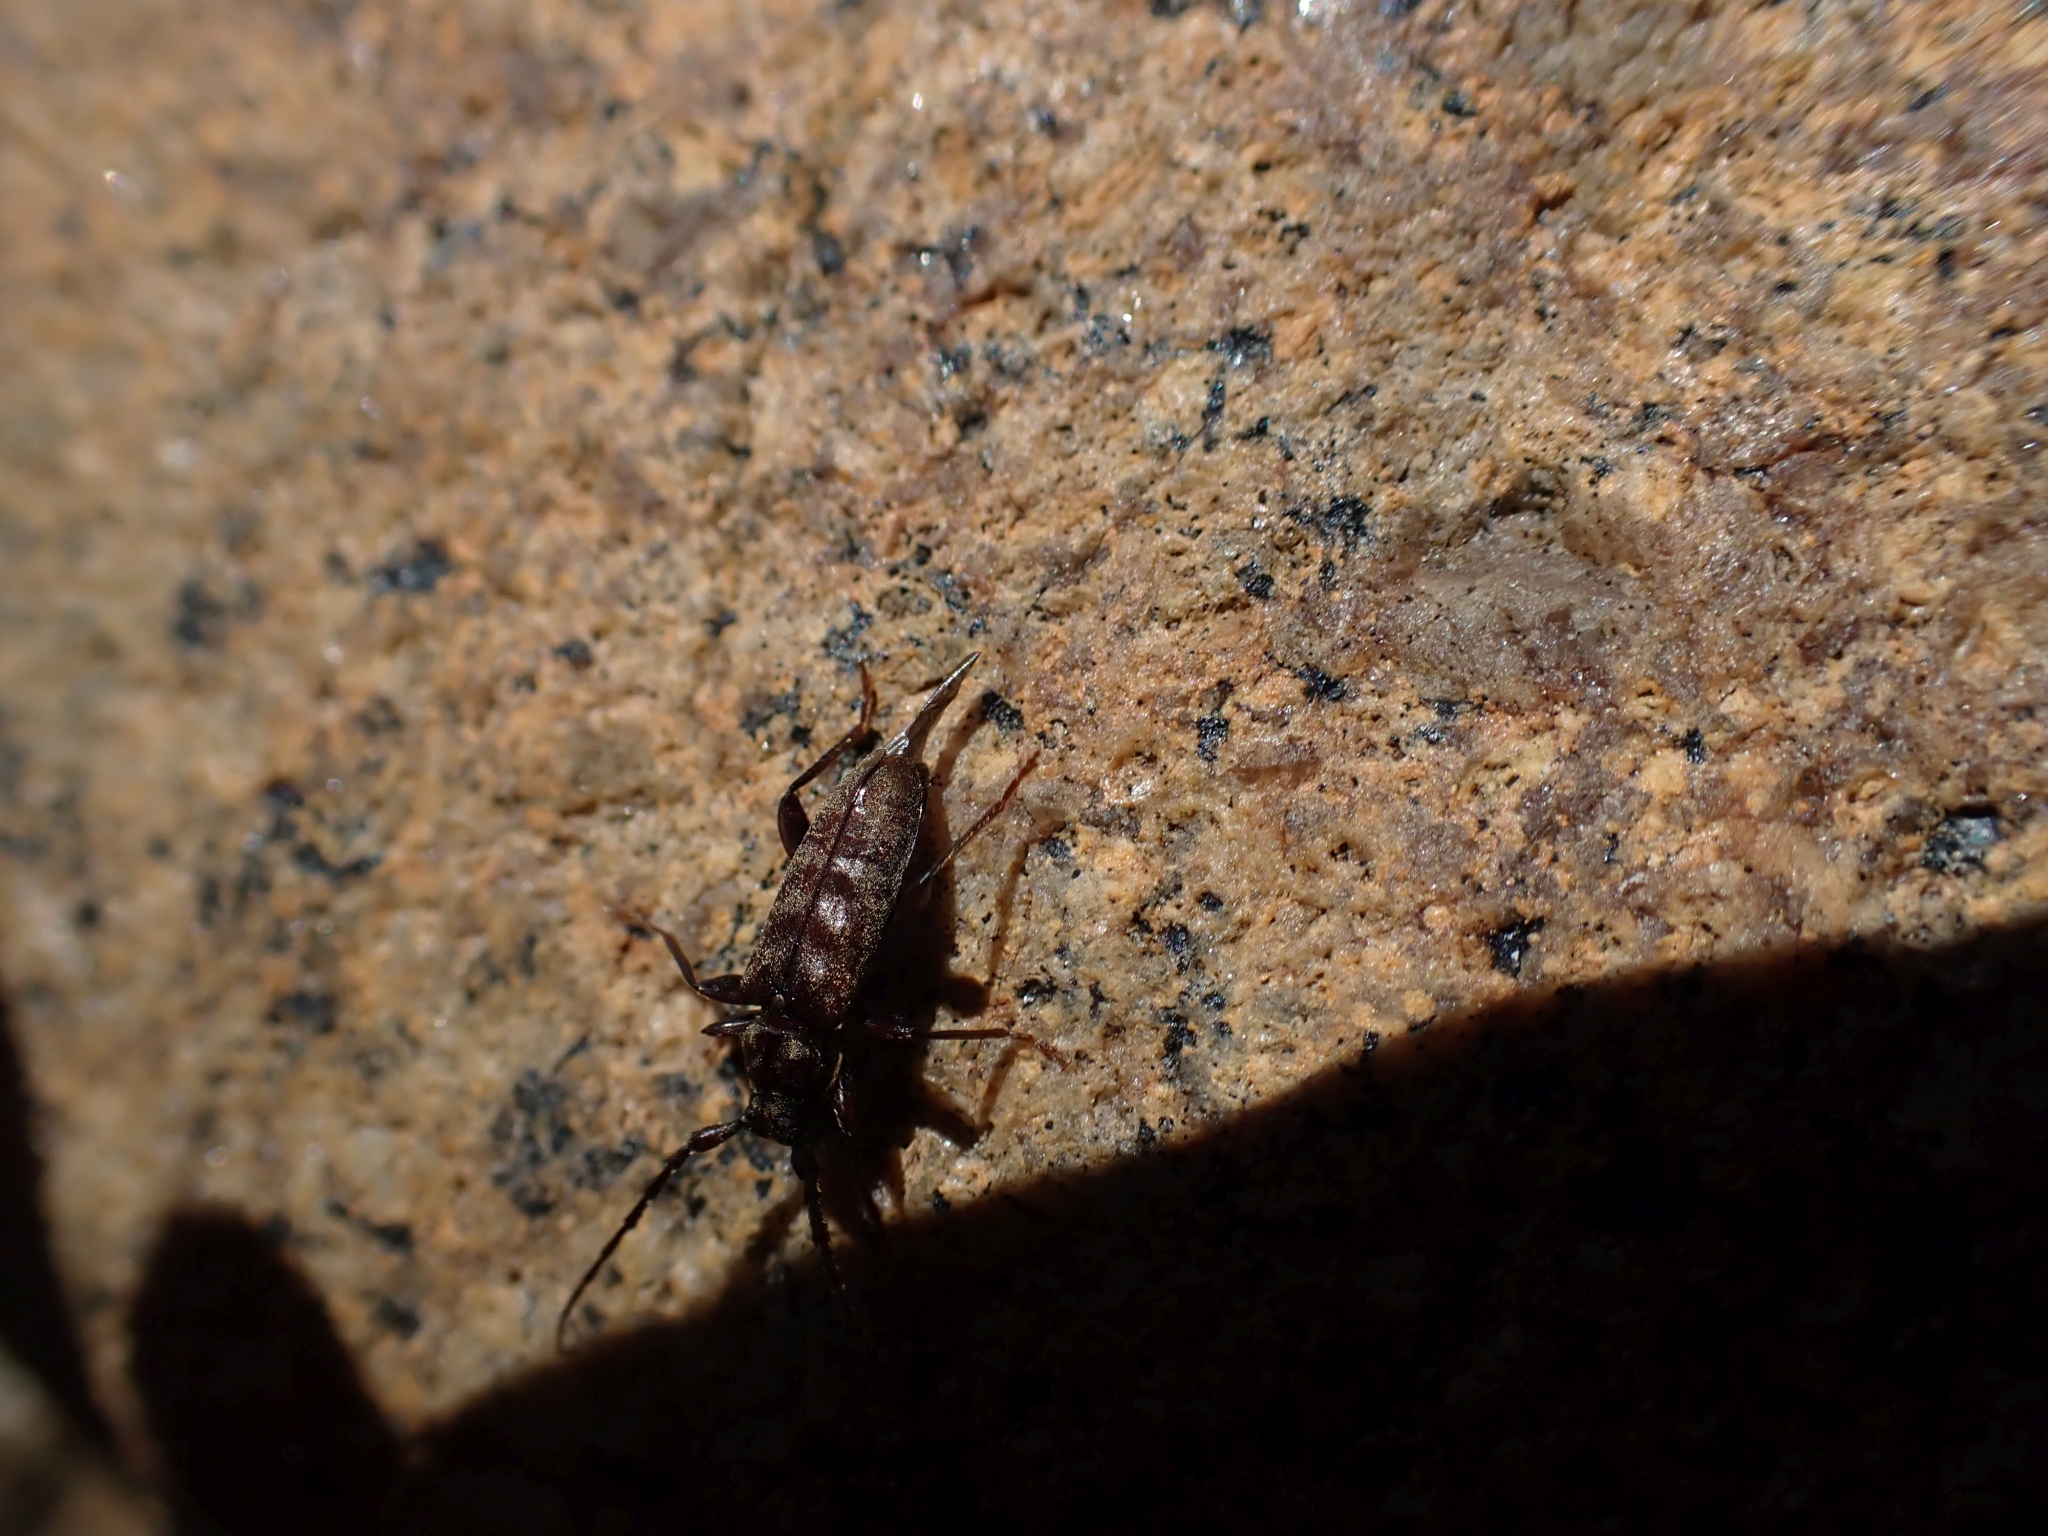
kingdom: Animalia
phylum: Arthropoda
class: Insecta
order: Coleoptera
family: Cerambycidae
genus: Opsimus
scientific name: Opsimus quadrilineatus
